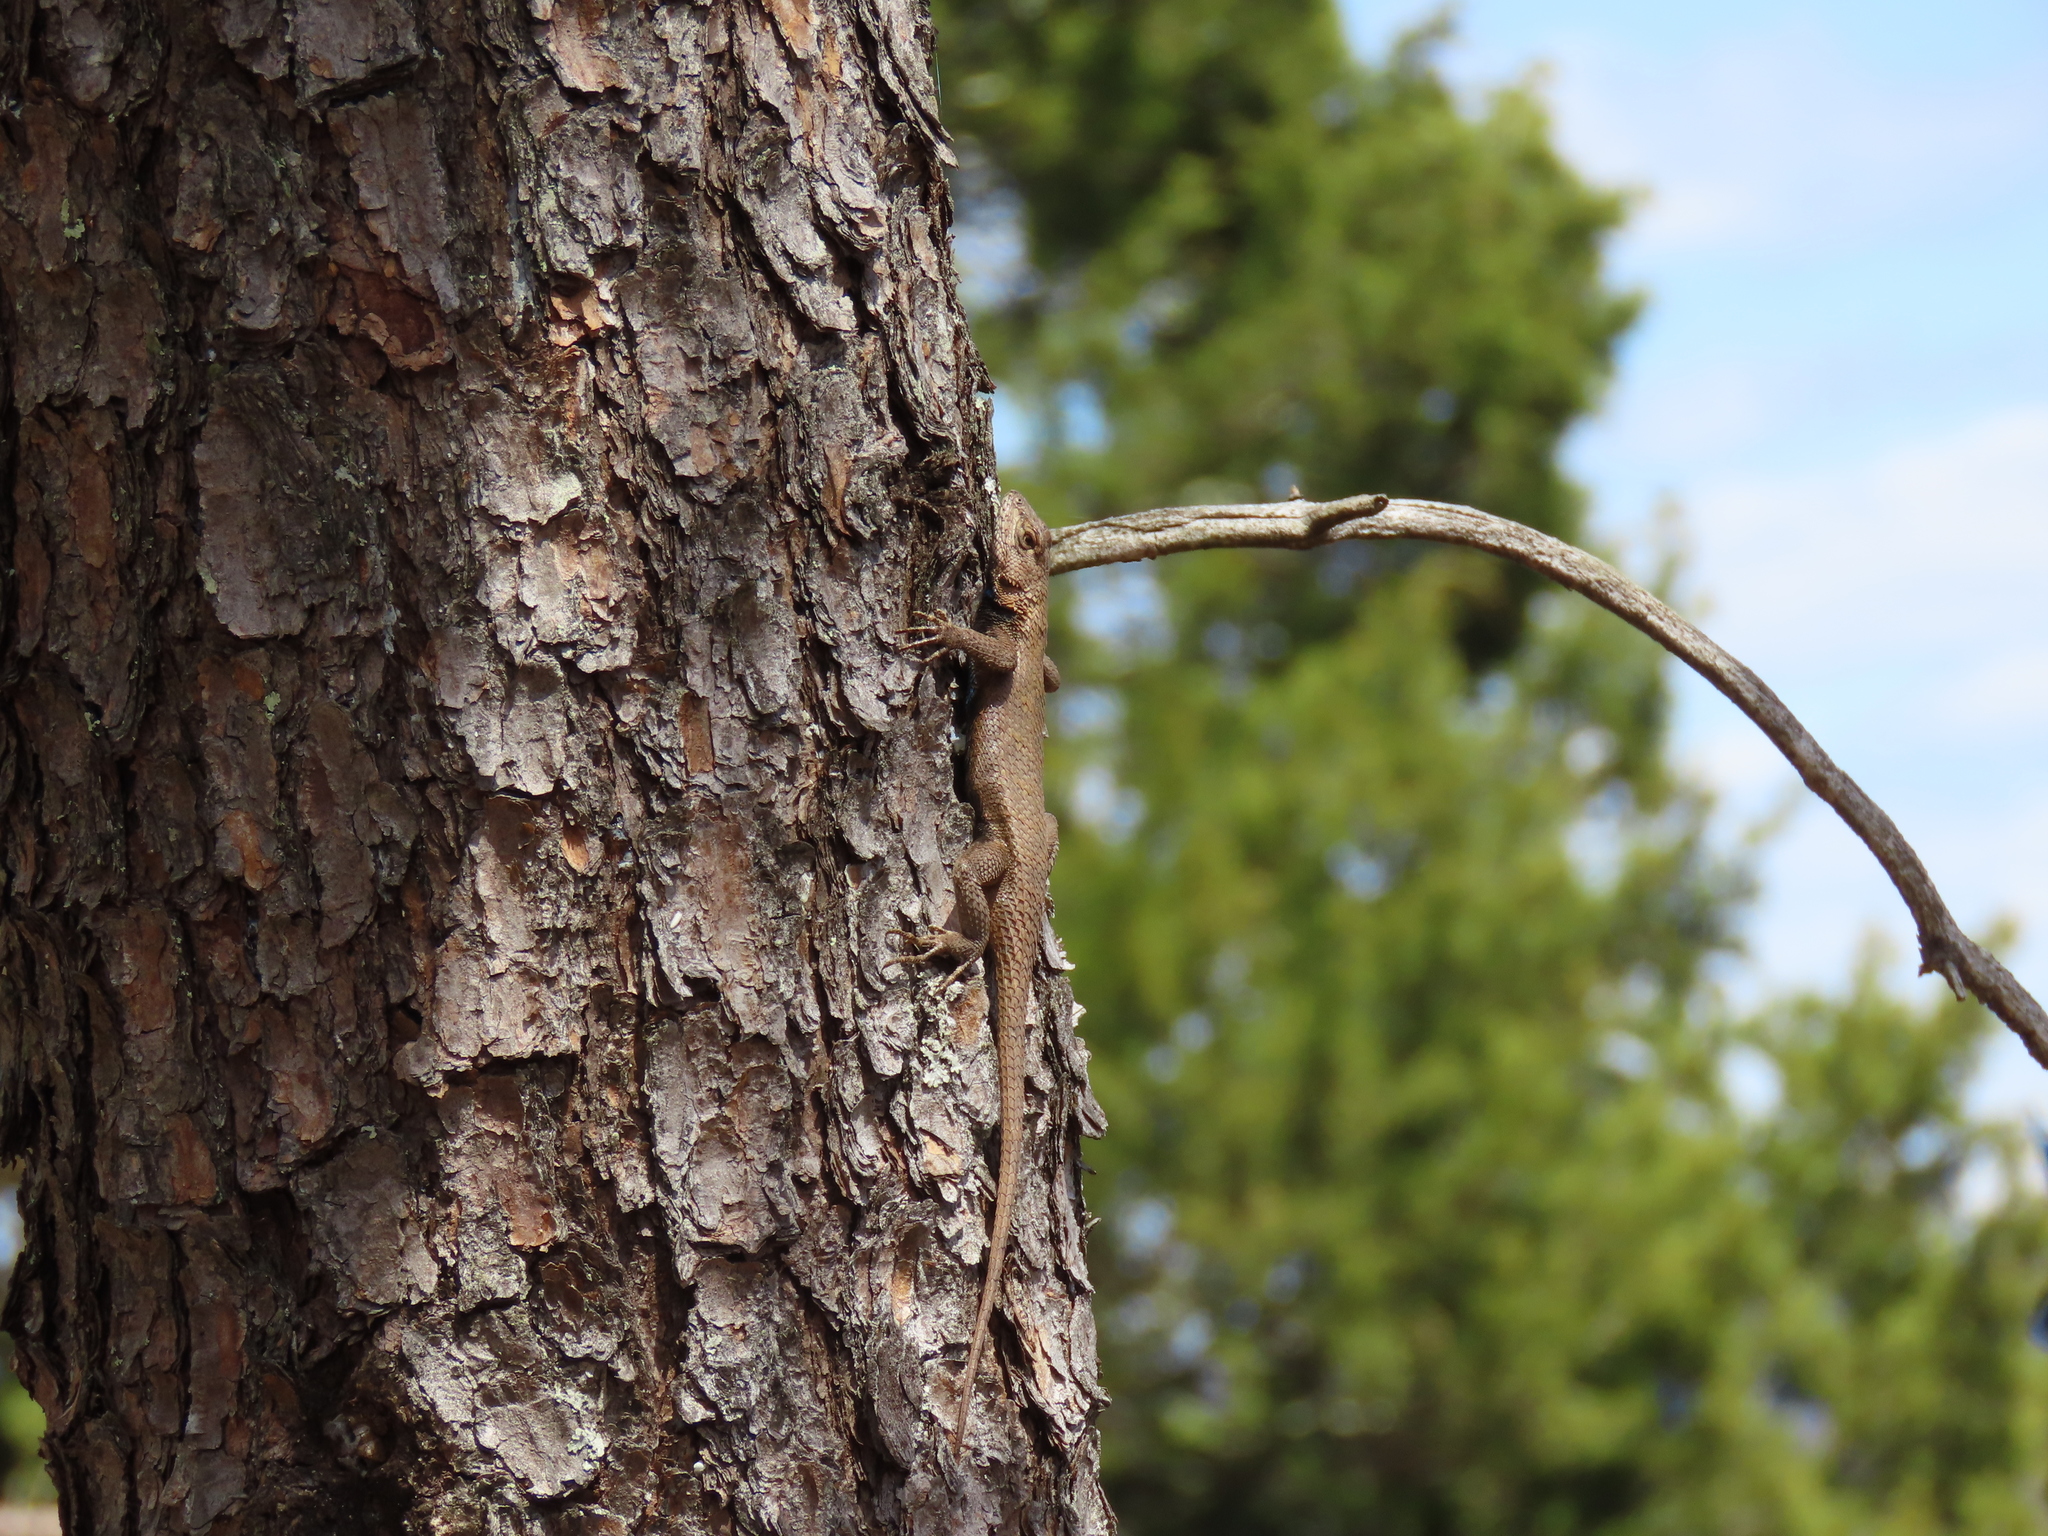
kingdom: Animalia
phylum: Chordata
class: Squamata
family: Phrynosomatidae
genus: Sceloporus
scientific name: Sceloporus undulatus
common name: Eastern fence lizard
